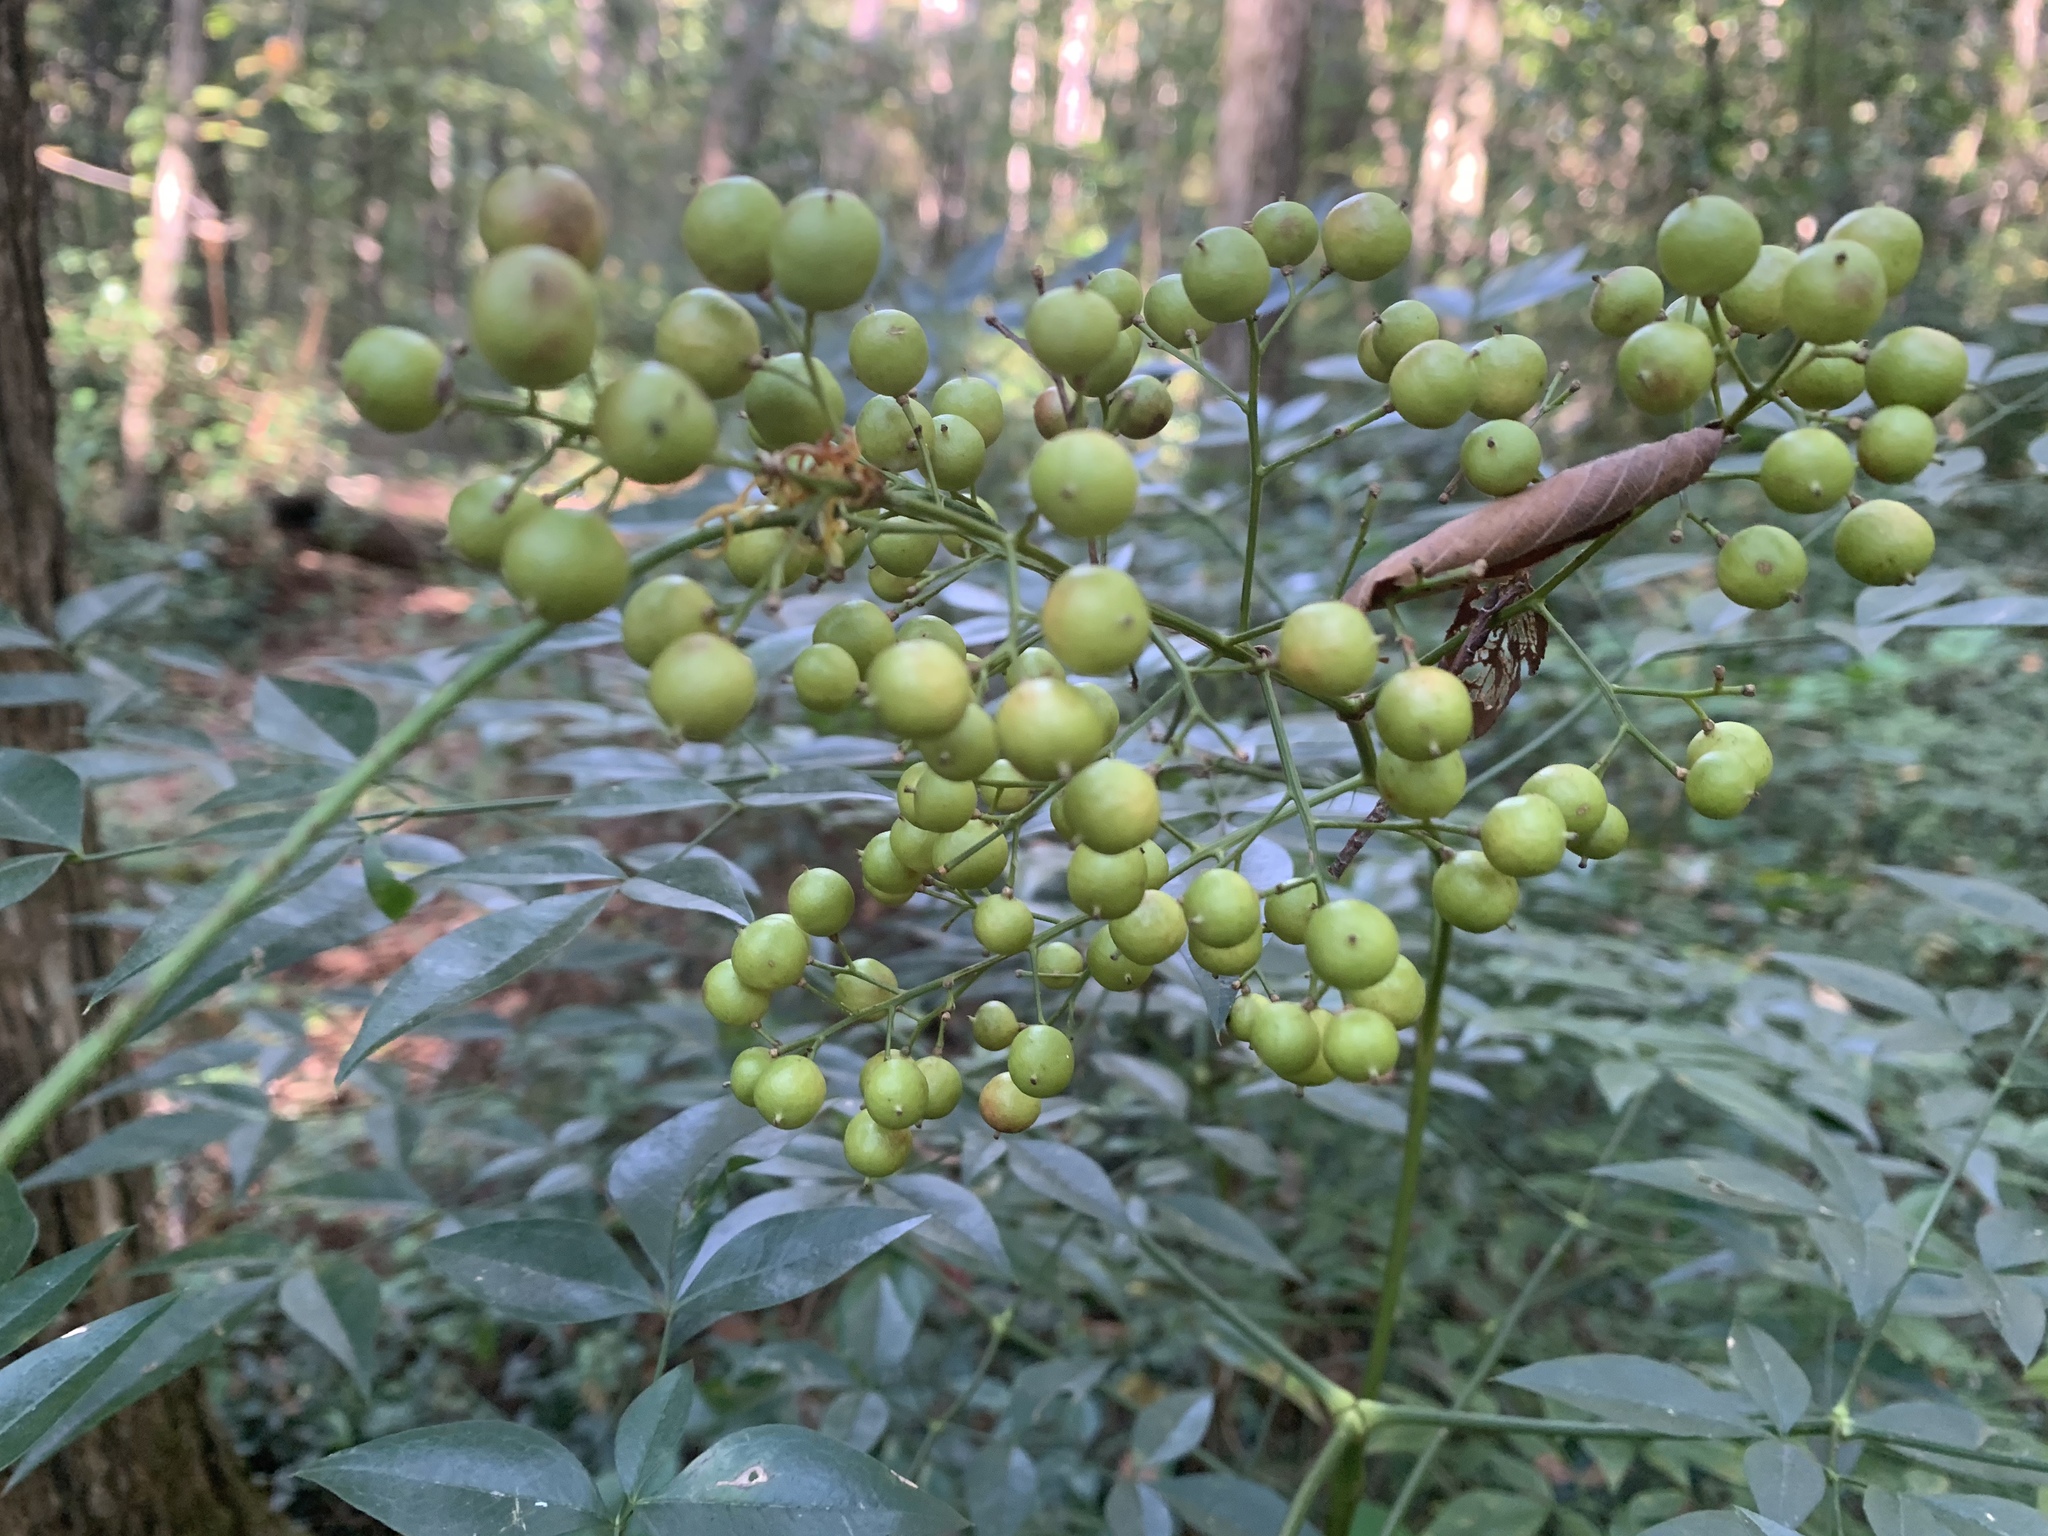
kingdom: Plantae
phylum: Tracheophyta
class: Magnoliopsida
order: Ranunculales
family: Berberidaceae
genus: Nandina
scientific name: Nandina domestica
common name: Sacred bamboo
